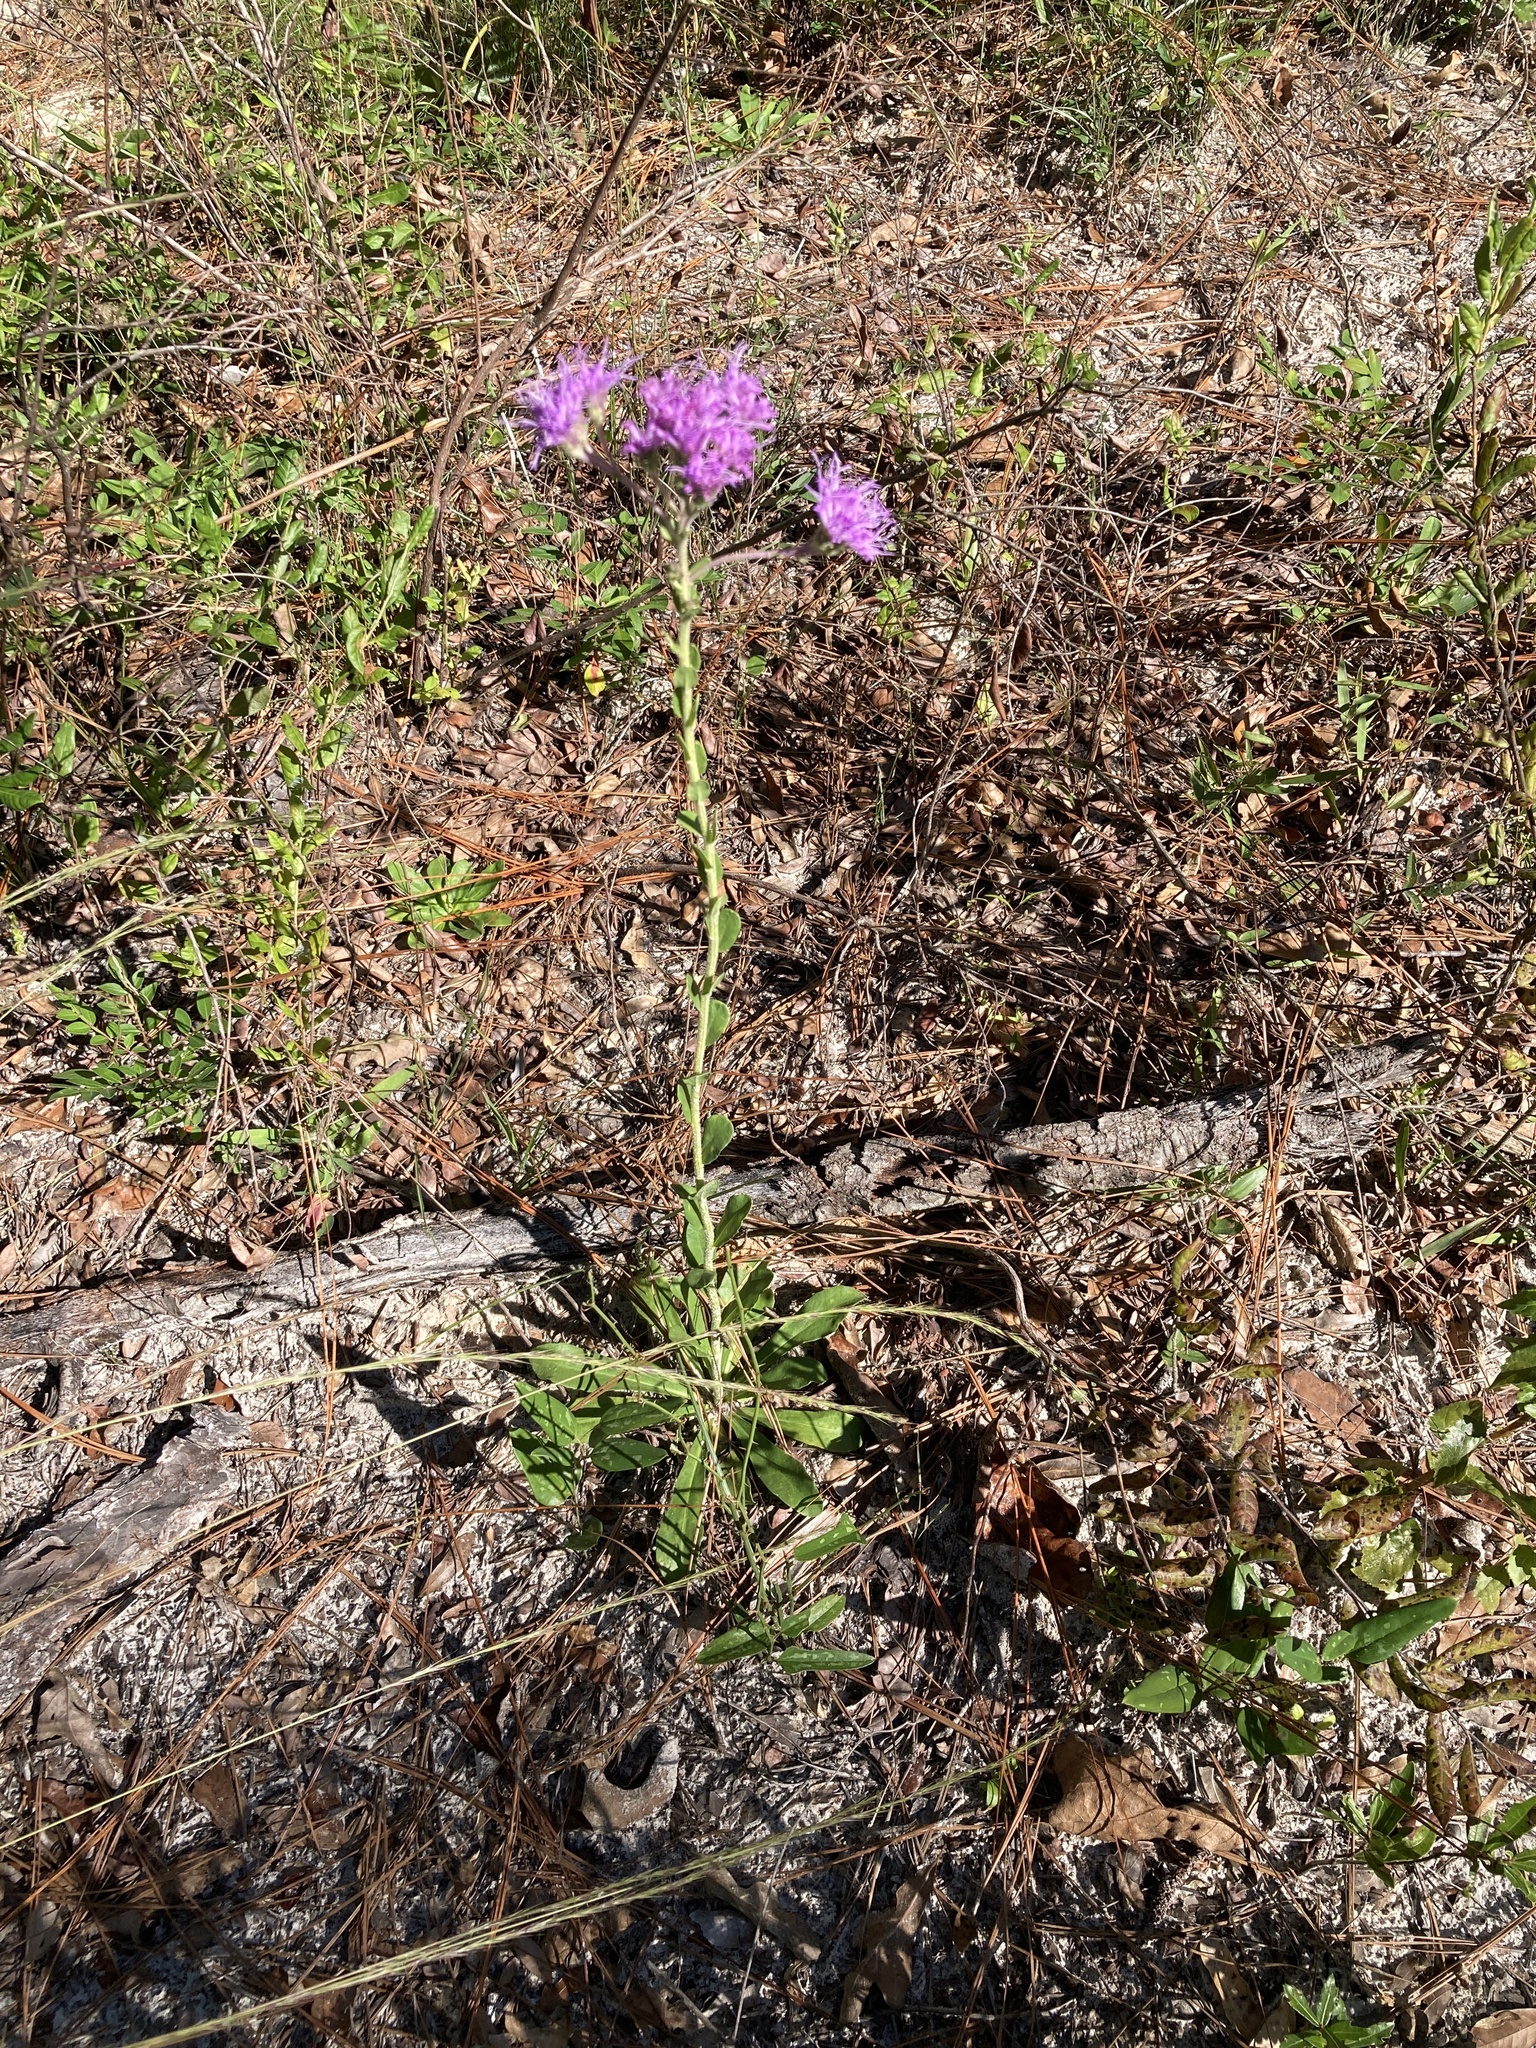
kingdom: Plantae
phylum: Tracheophyta
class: Magnoliopsida
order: Asterales
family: Asteraceae
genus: Carphephorus
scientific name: Carphephorus corymbosus
